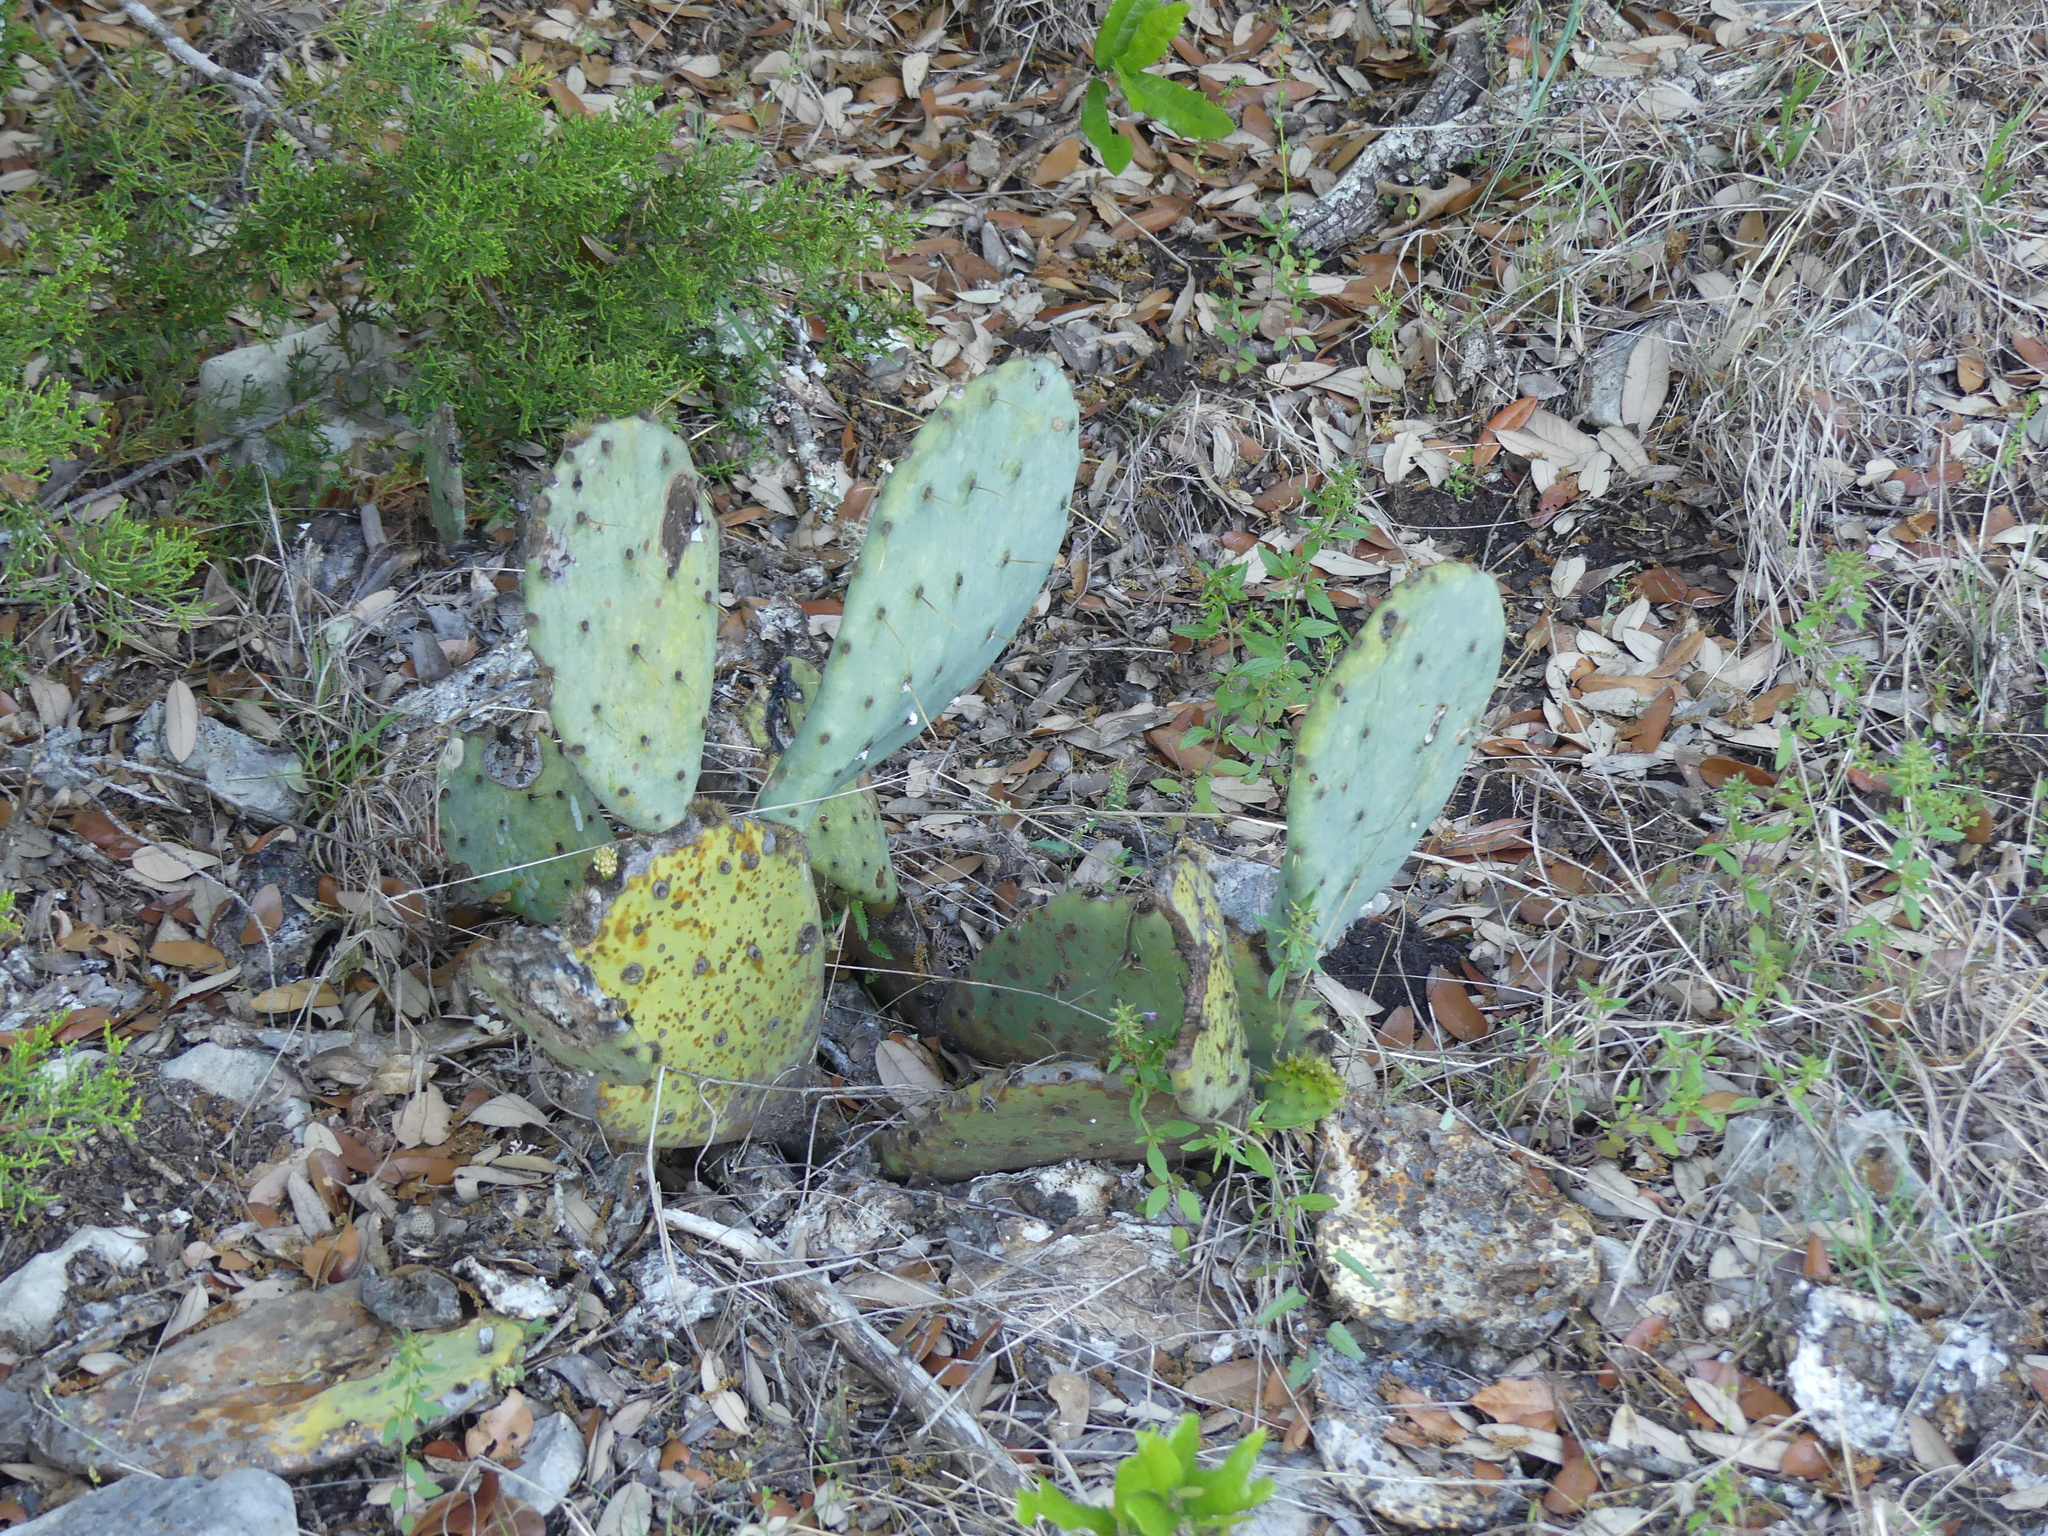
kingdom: Plantae
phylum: Tracheophyta
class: Magnoliopsida
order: Caryophyllales
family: Cactaceae
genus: Opuntia
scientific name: Opuntia engelmannii
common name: Cactus-apple
